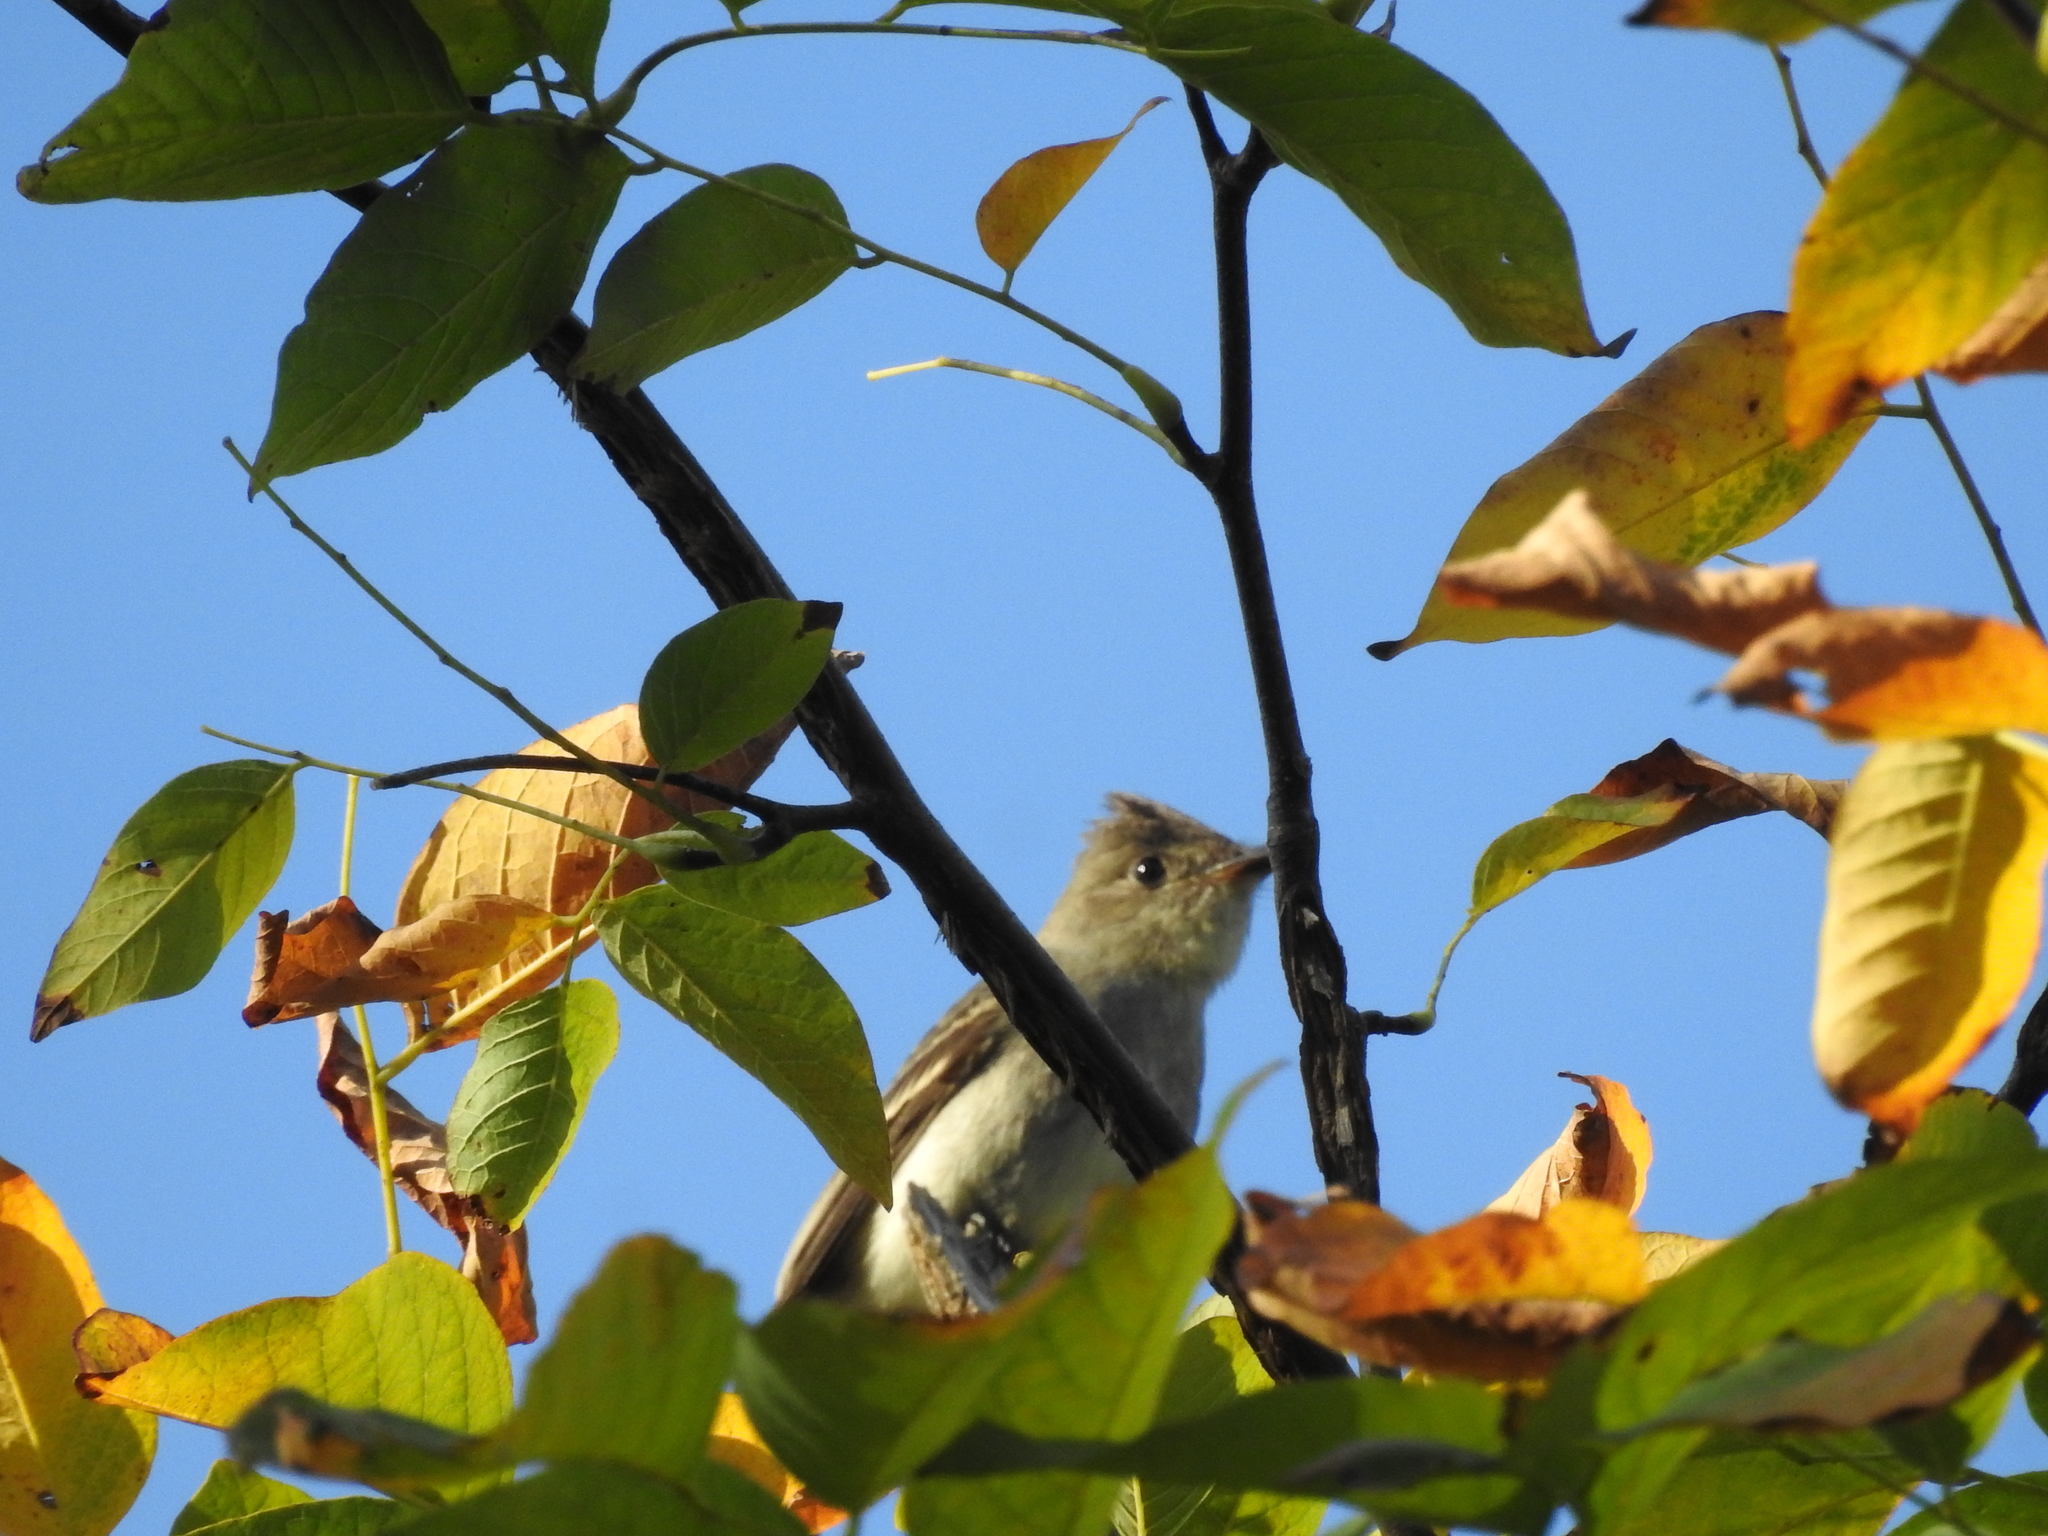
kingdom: Animalia
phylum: Chordata
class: Aves
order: Passeriformes
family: Tyrannidae
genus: Contopus
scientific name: Contopus virens
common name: Eastern wood-pewee
